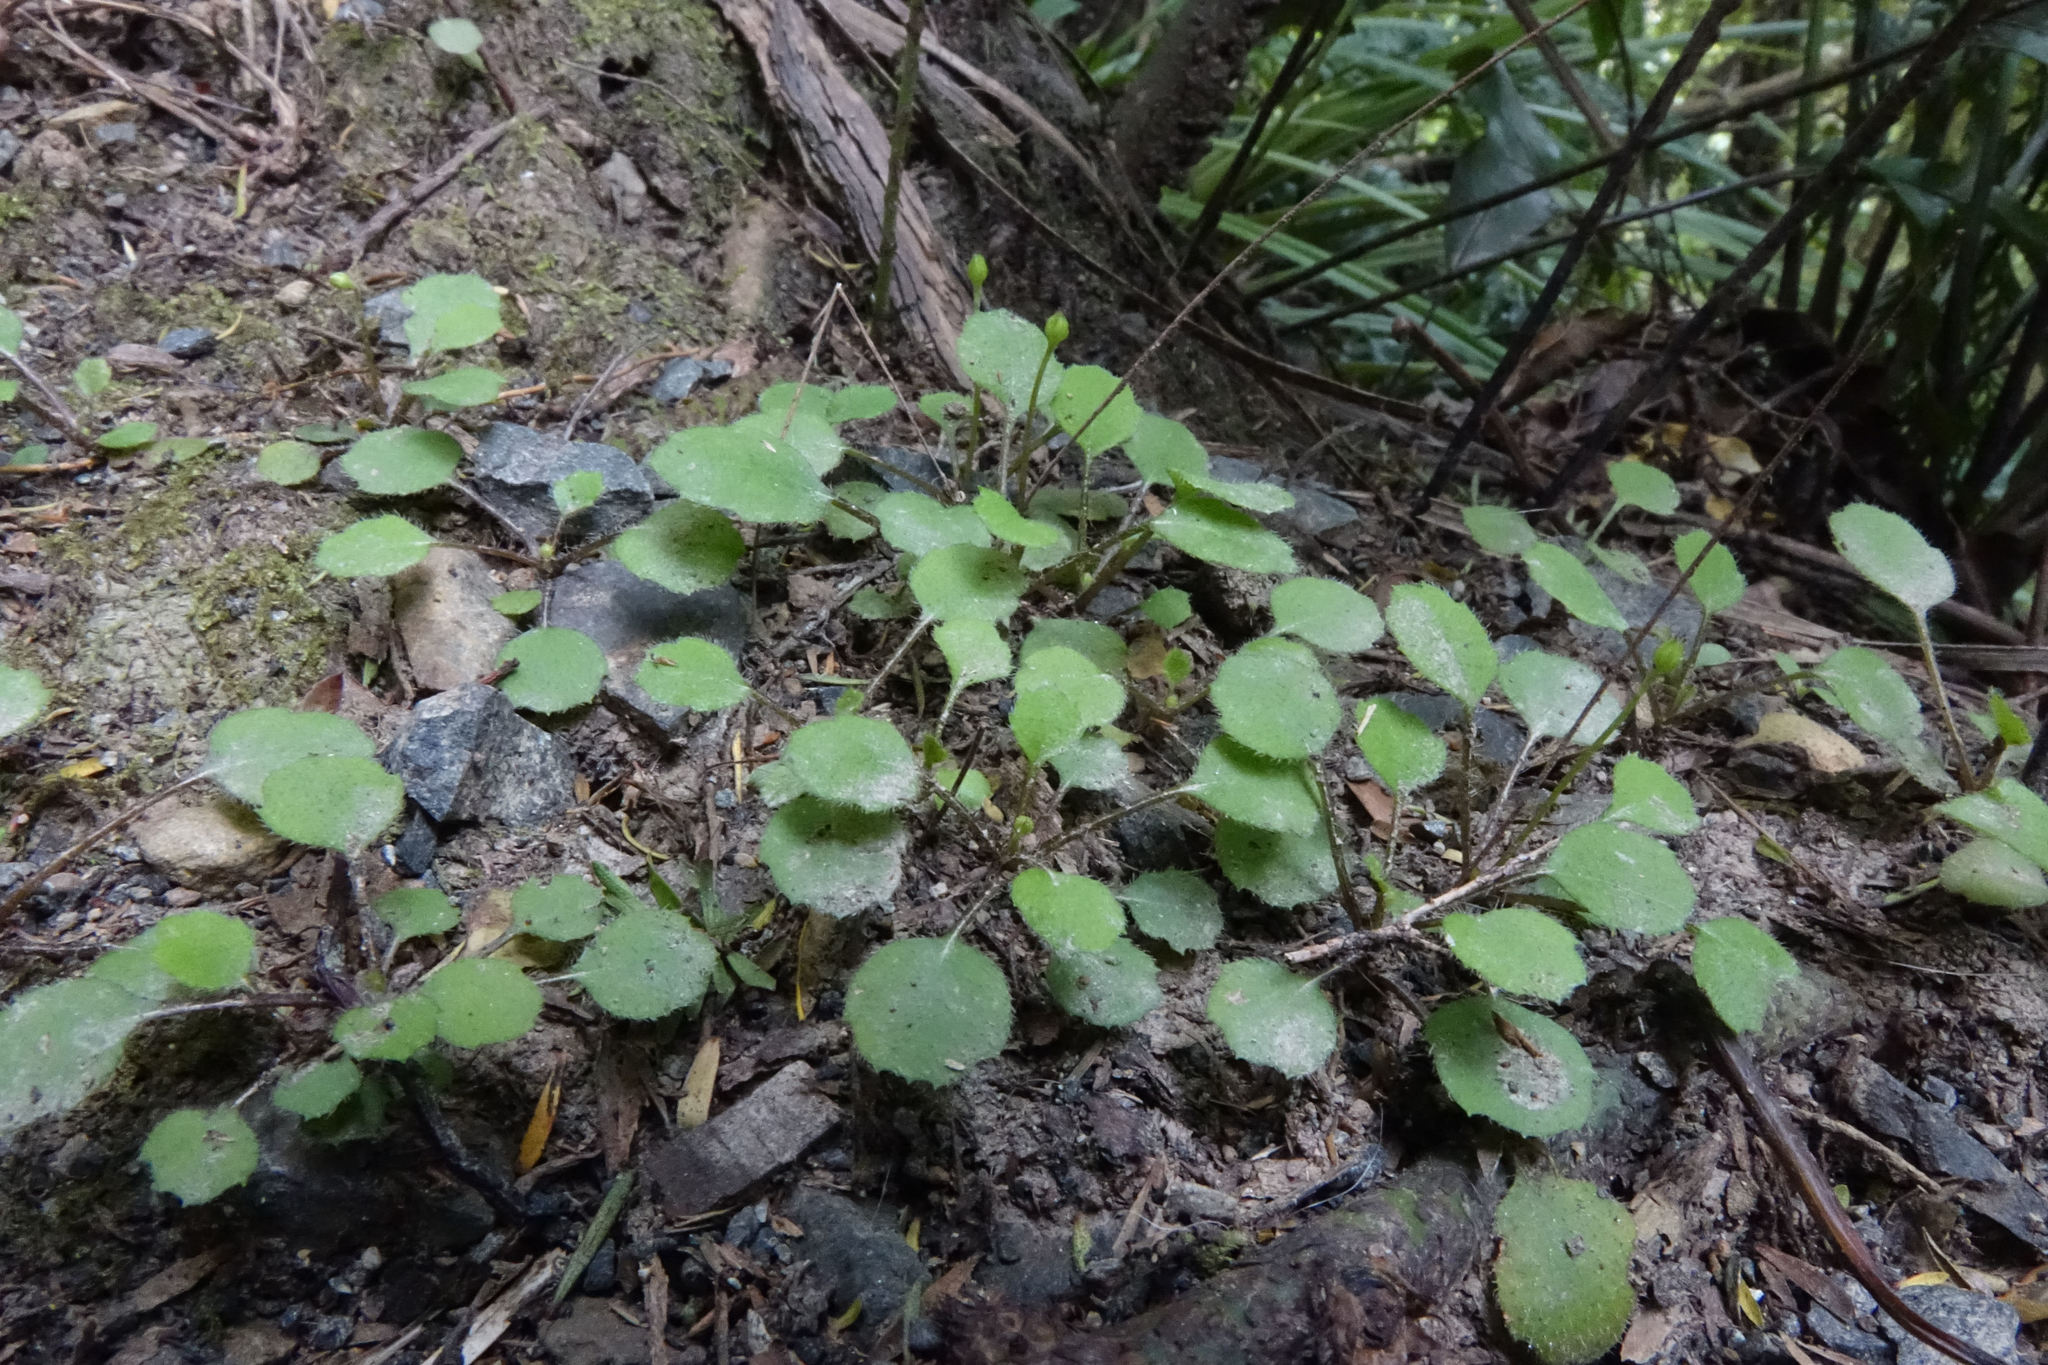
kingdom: Plantae
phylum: Tracheophyta
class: Magnoliopsida
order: Asterales
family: Asteraceae
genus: Lagenophora
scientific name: Lagenophora strangulata
